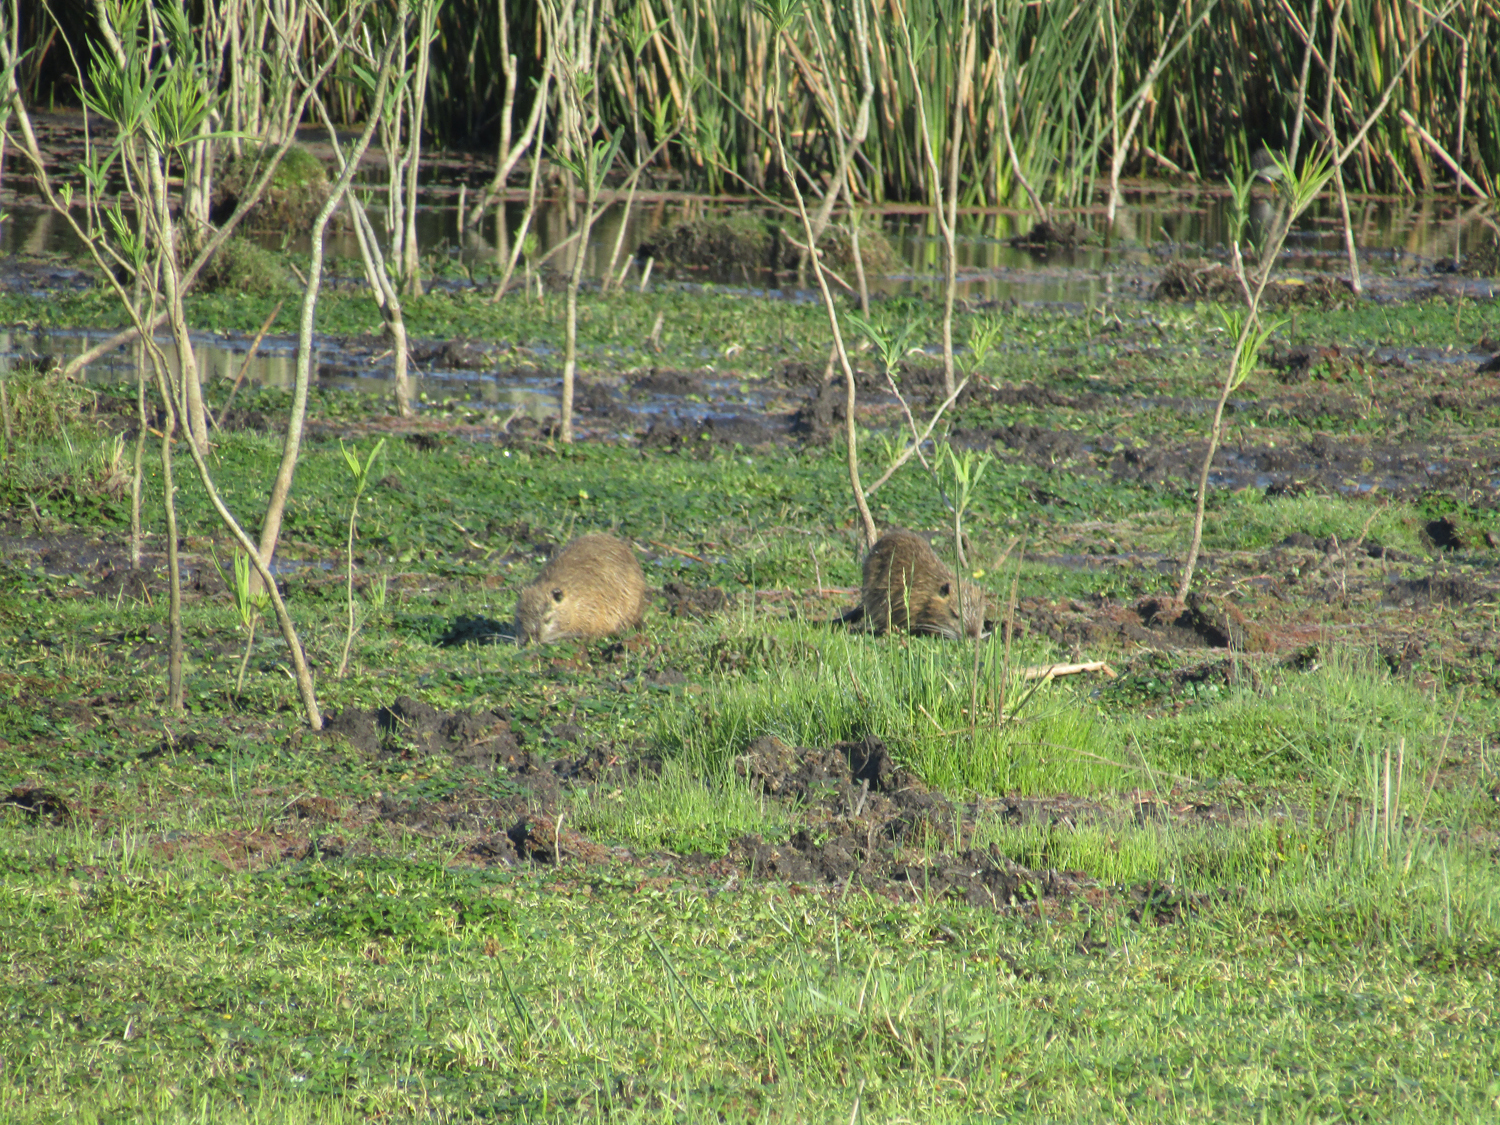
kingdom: Animalia
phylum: Chordata
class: Mammalia
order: Rodentia
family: Myocastoridae
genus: Myocastor
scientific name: Myocastor coypus
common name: Coypu
